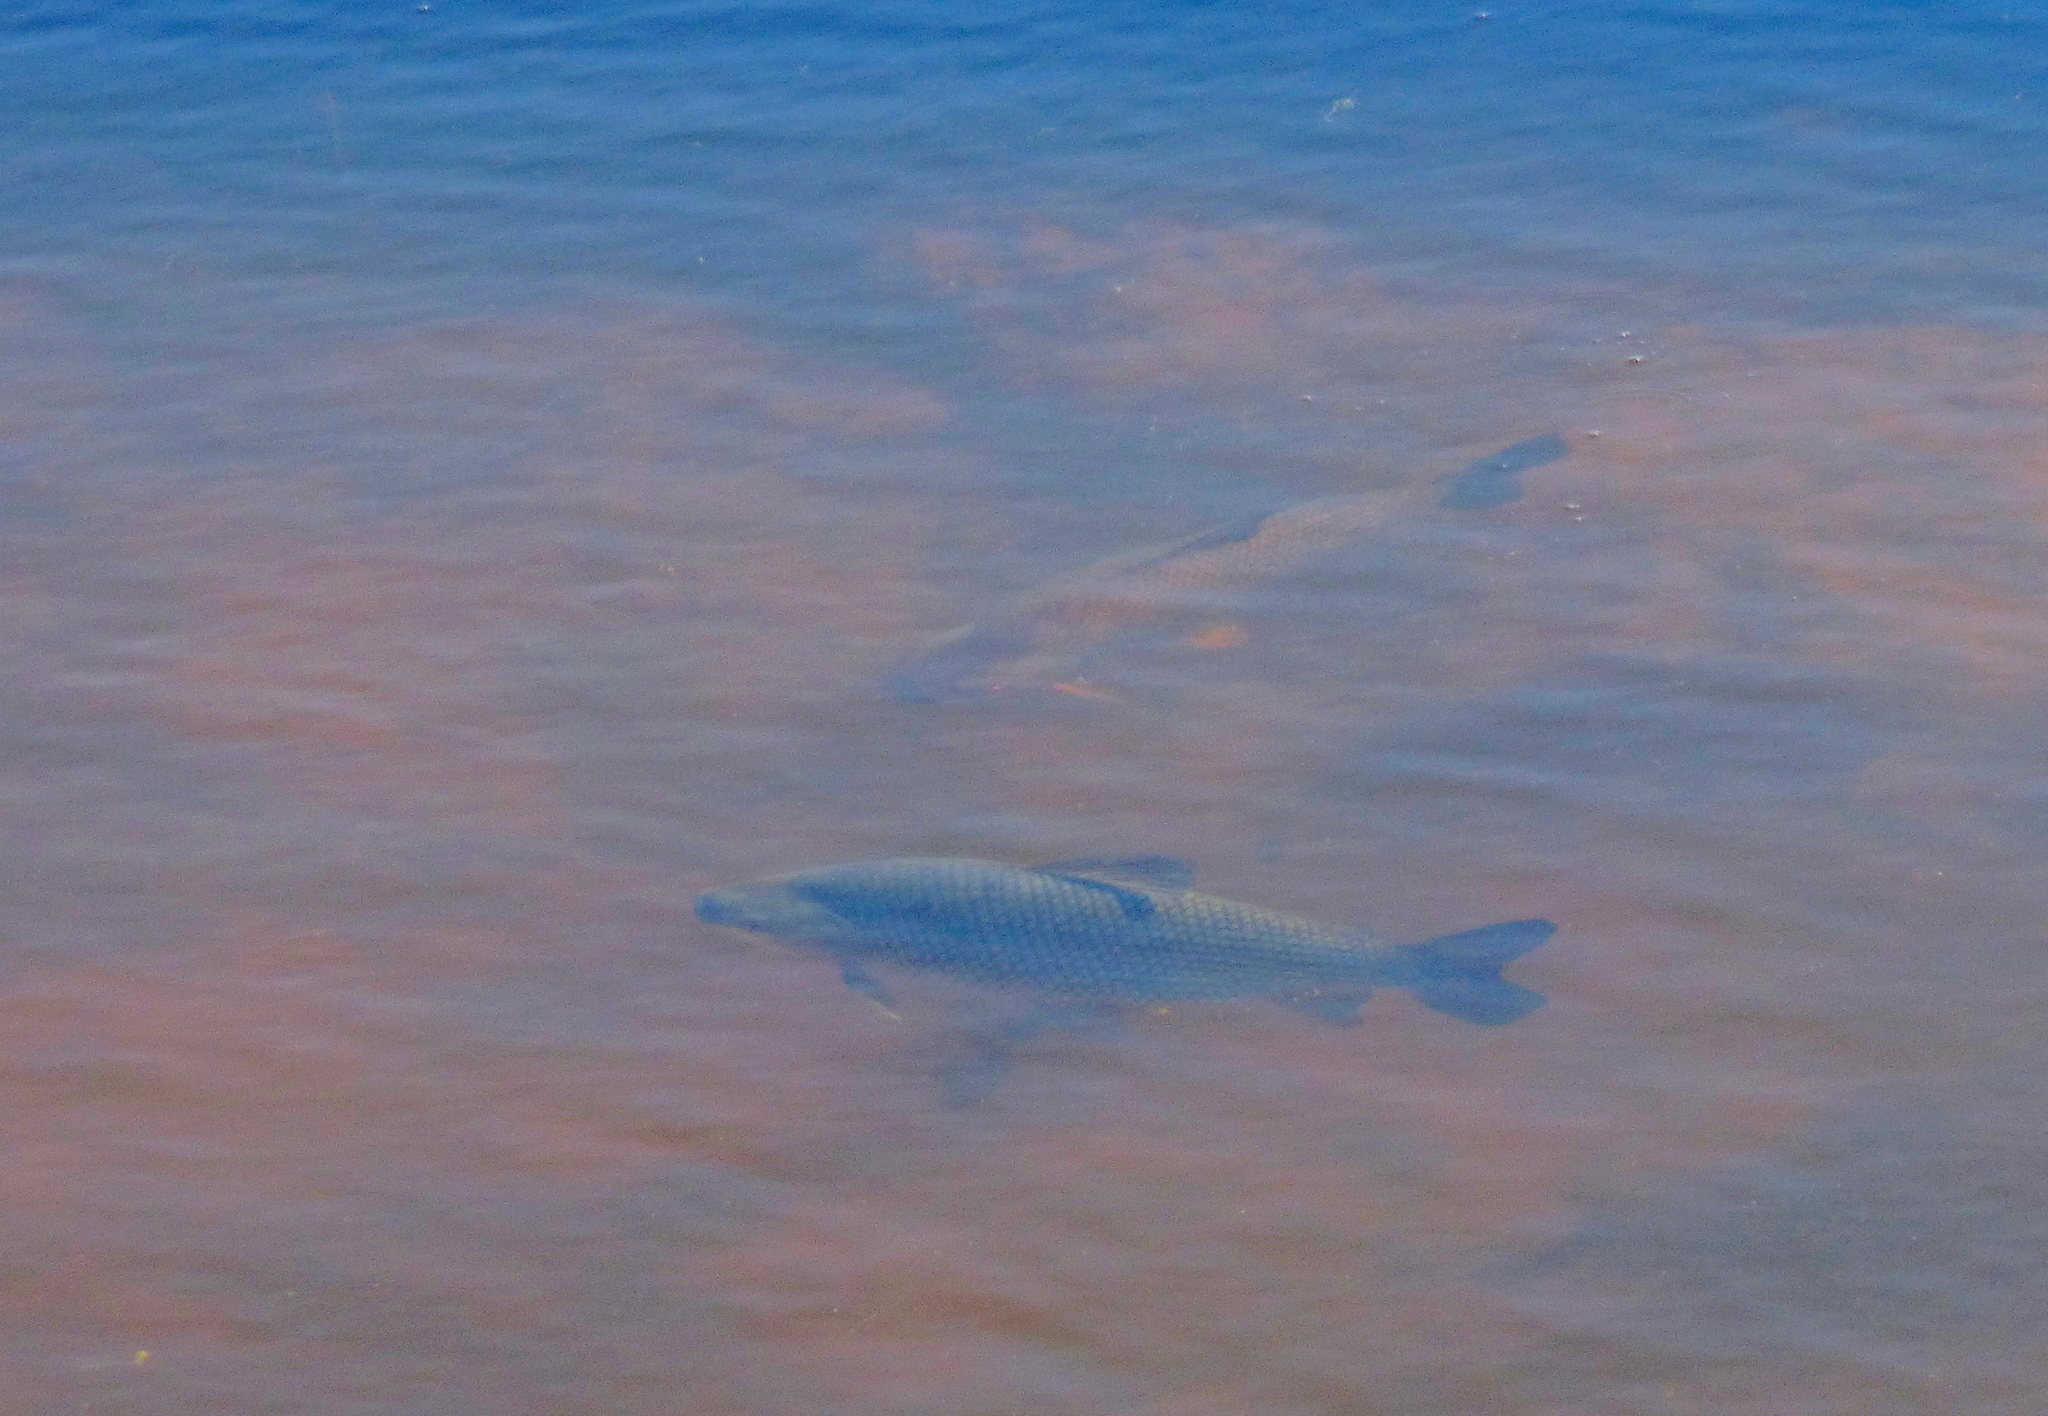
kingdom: Animalia
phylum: Chordata
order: Characiformes
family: Prochilodontidae
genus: Prochilodus
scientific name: Prochilodus lineatus
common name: Curimbata
